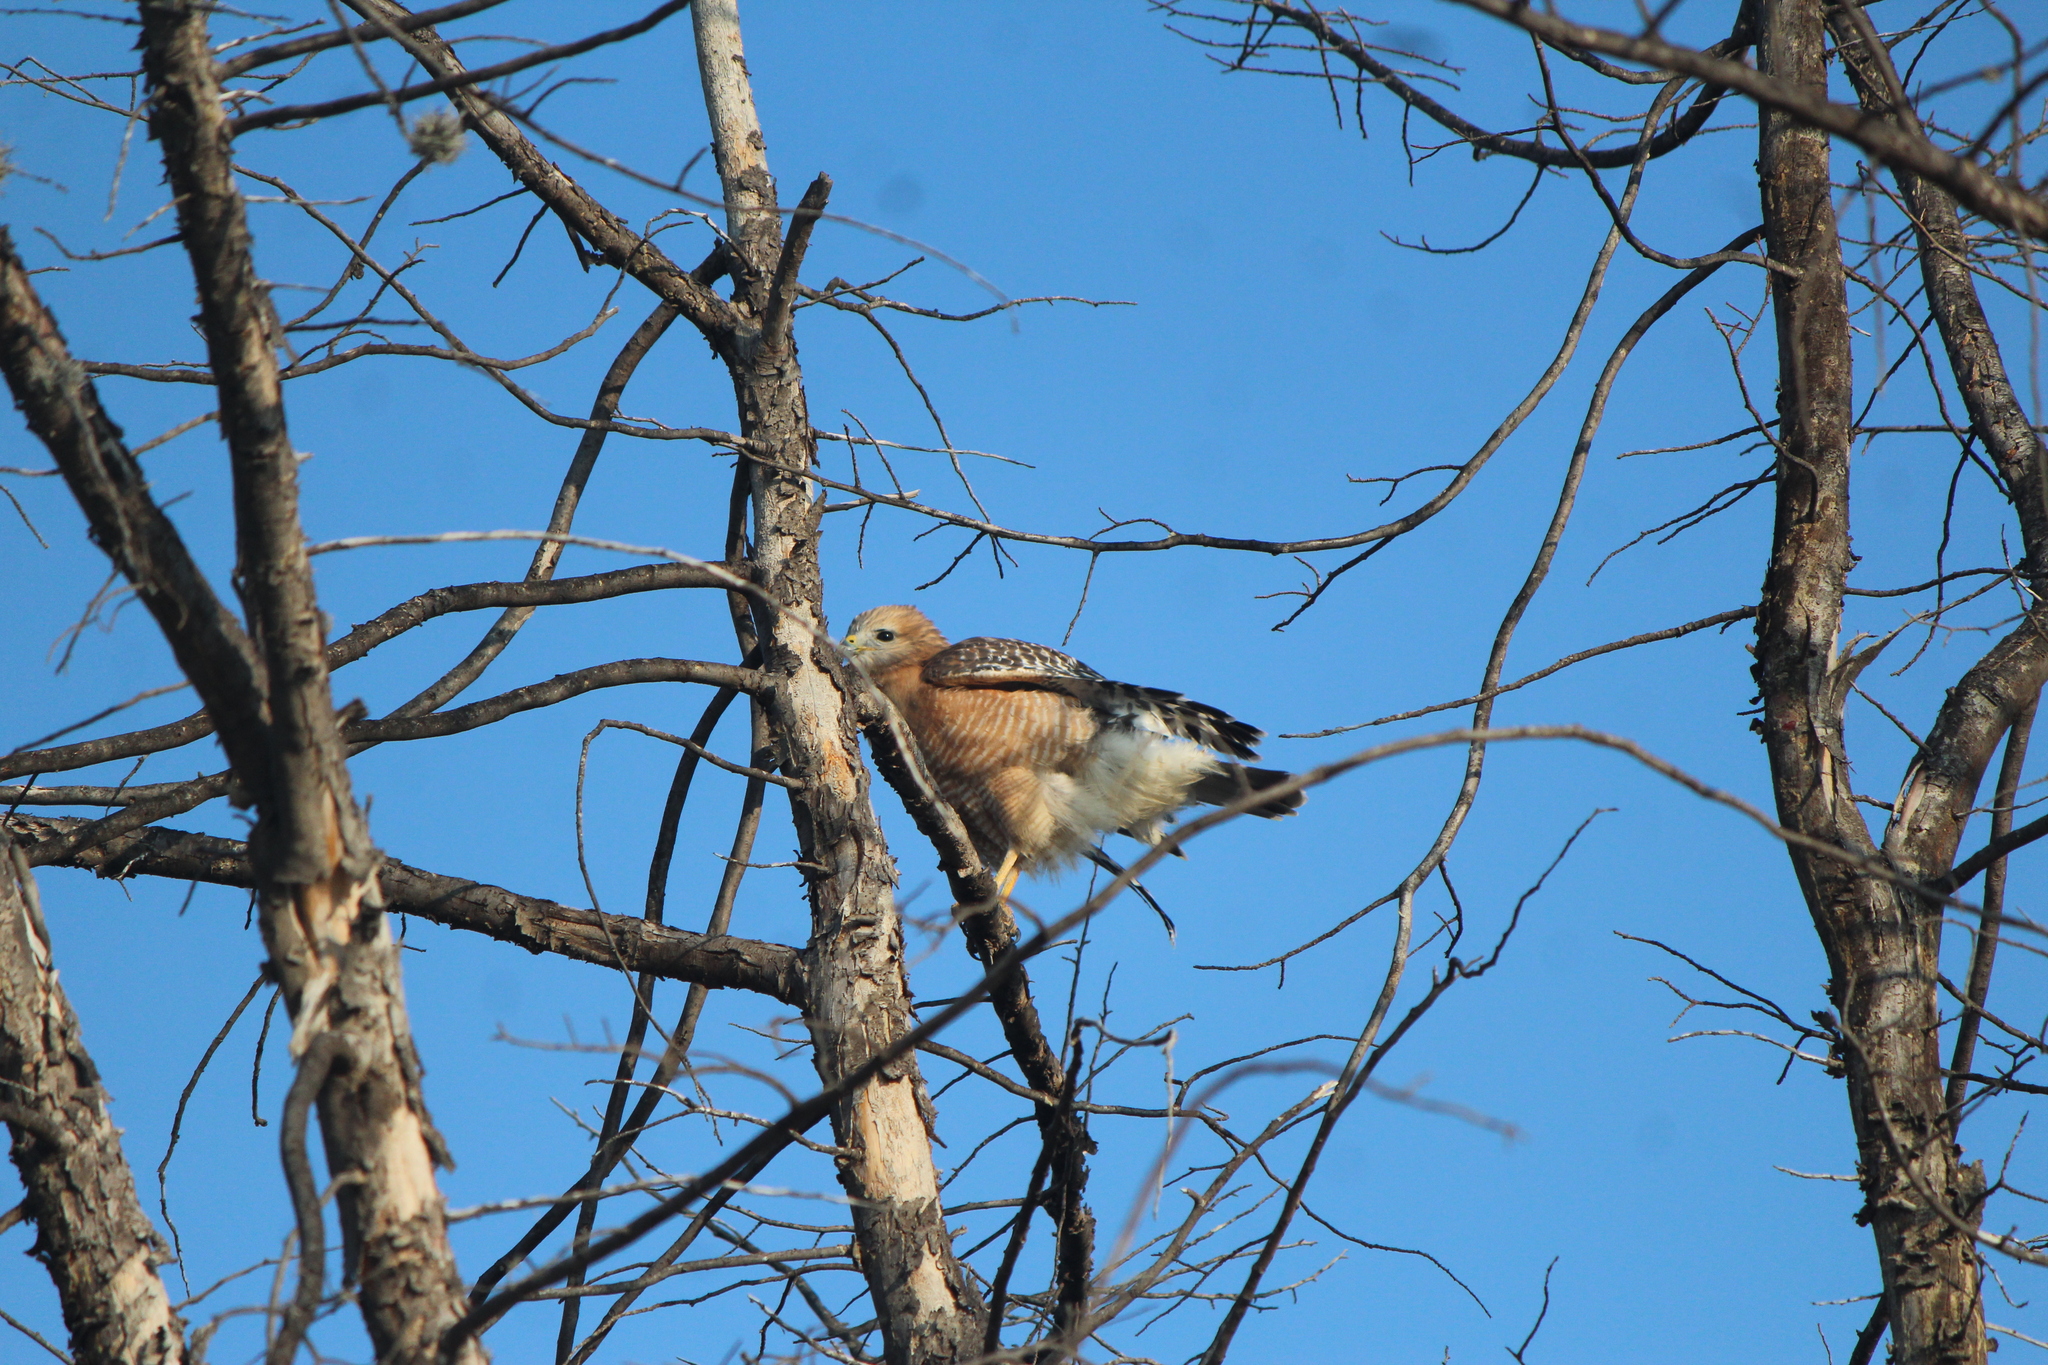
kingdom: Animalia
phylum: Chordata
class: Aves
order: Accipitriformes
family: Accipitridae
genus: Buteo
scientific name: Buteo lineatus
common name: Red-shouldered hawk
